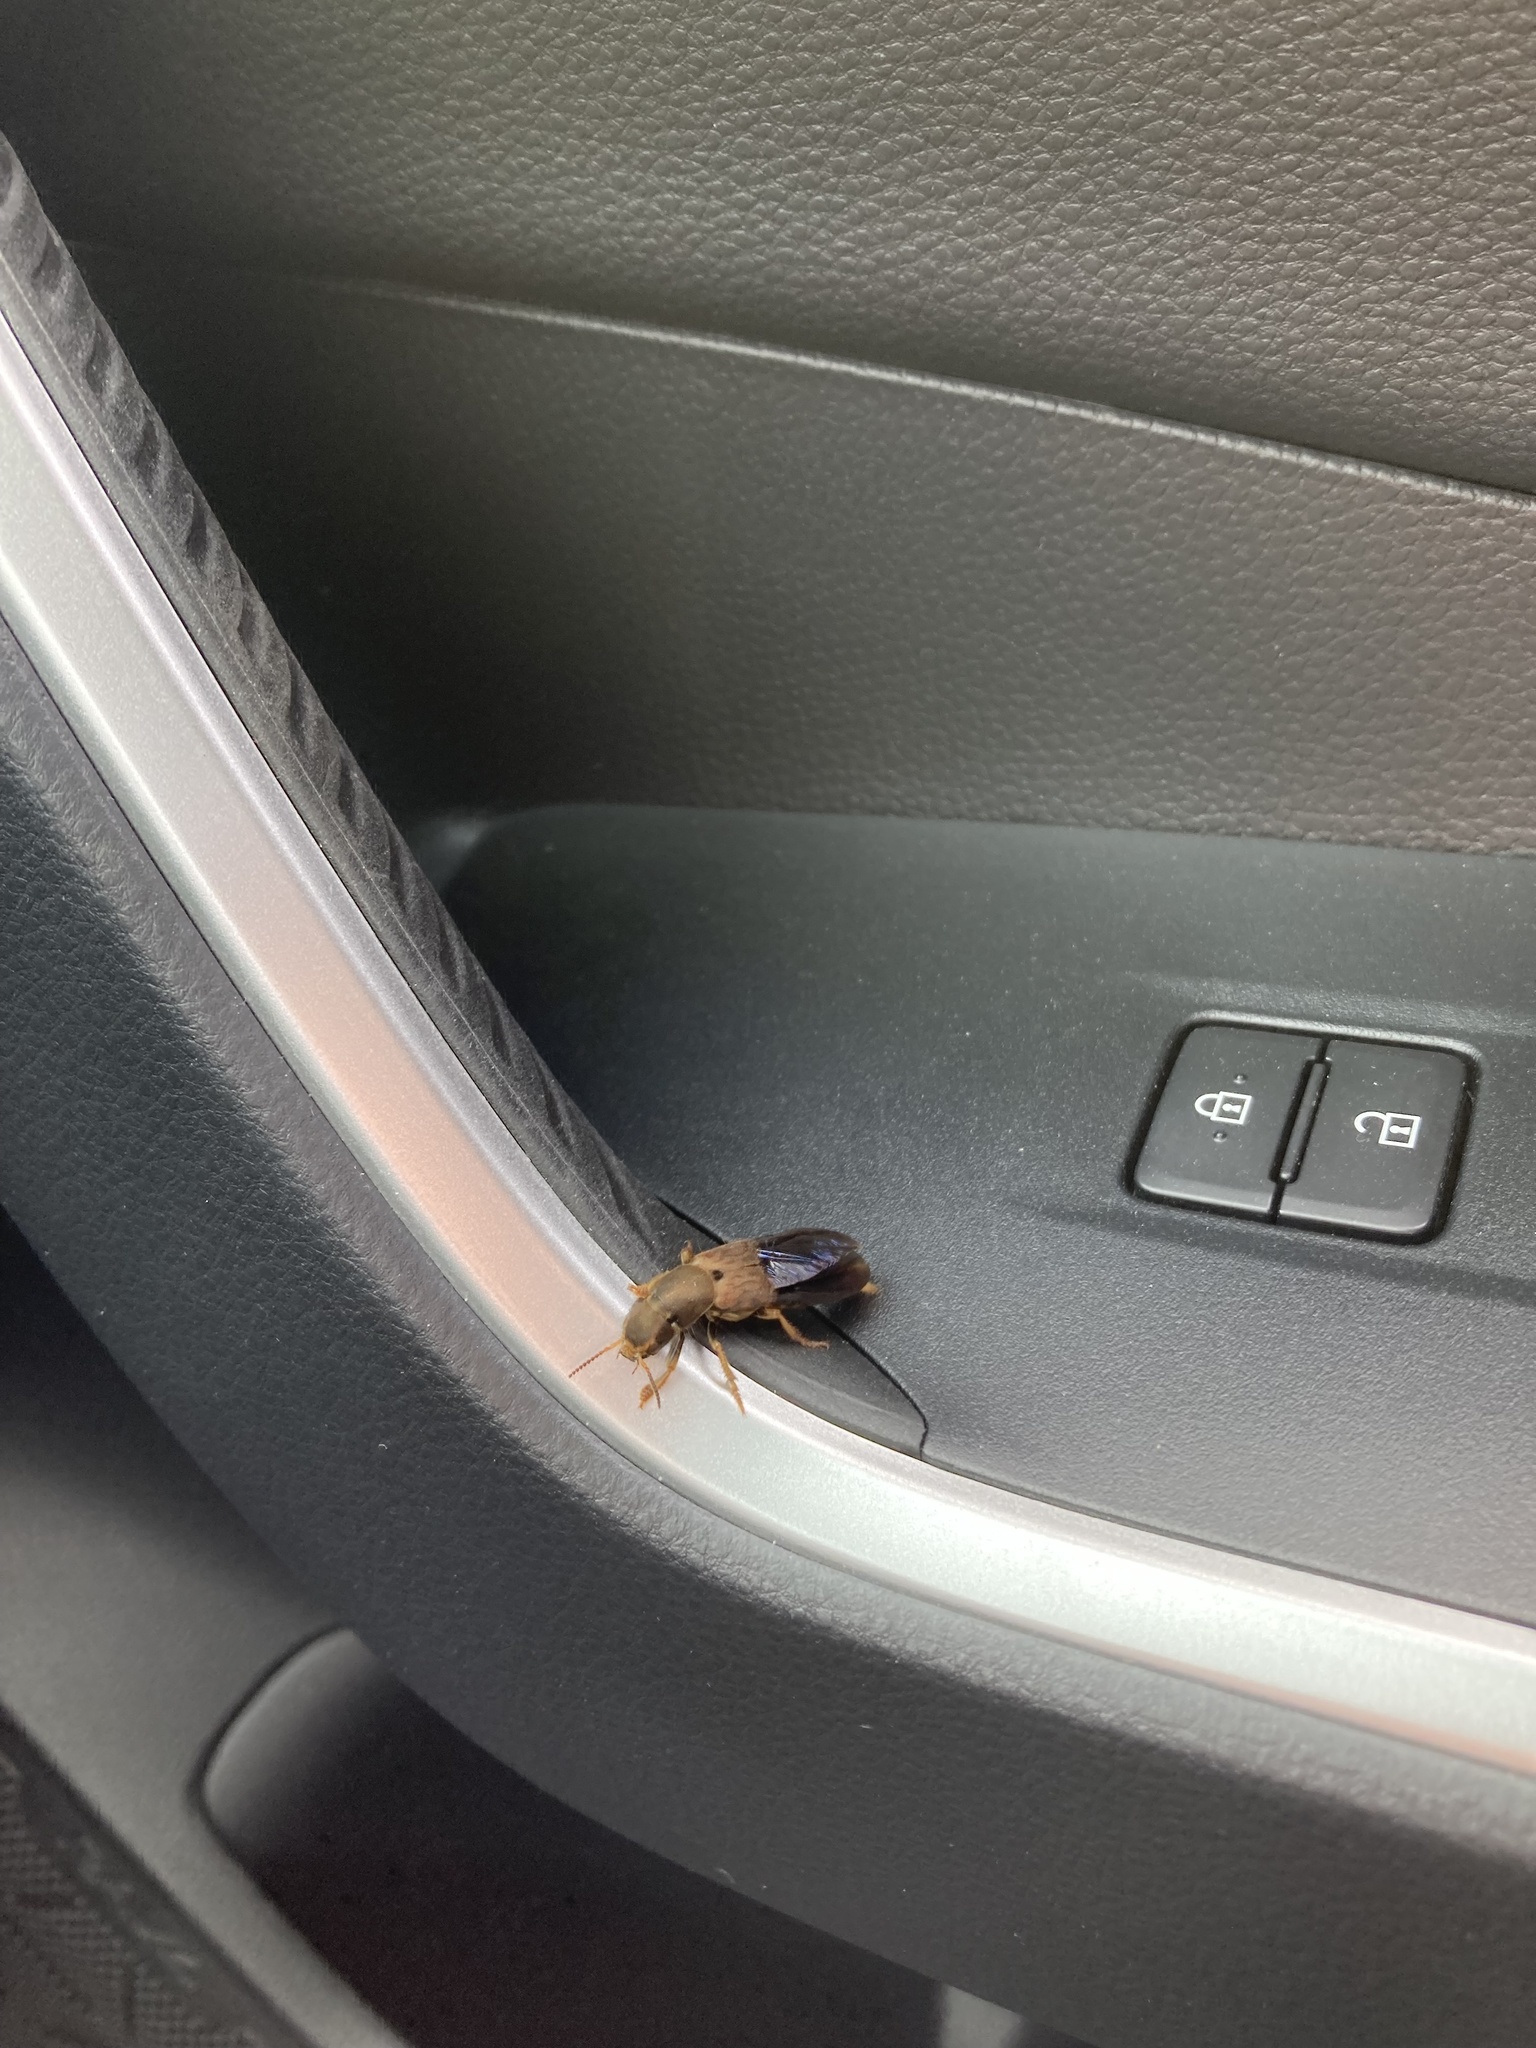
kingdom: Animalia
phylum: Arthropoda
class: Insecta
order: Coleoptera
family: Staphylinidae
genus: Platydracus
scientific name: Platydracus maculosus
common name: Brown rove beetle
